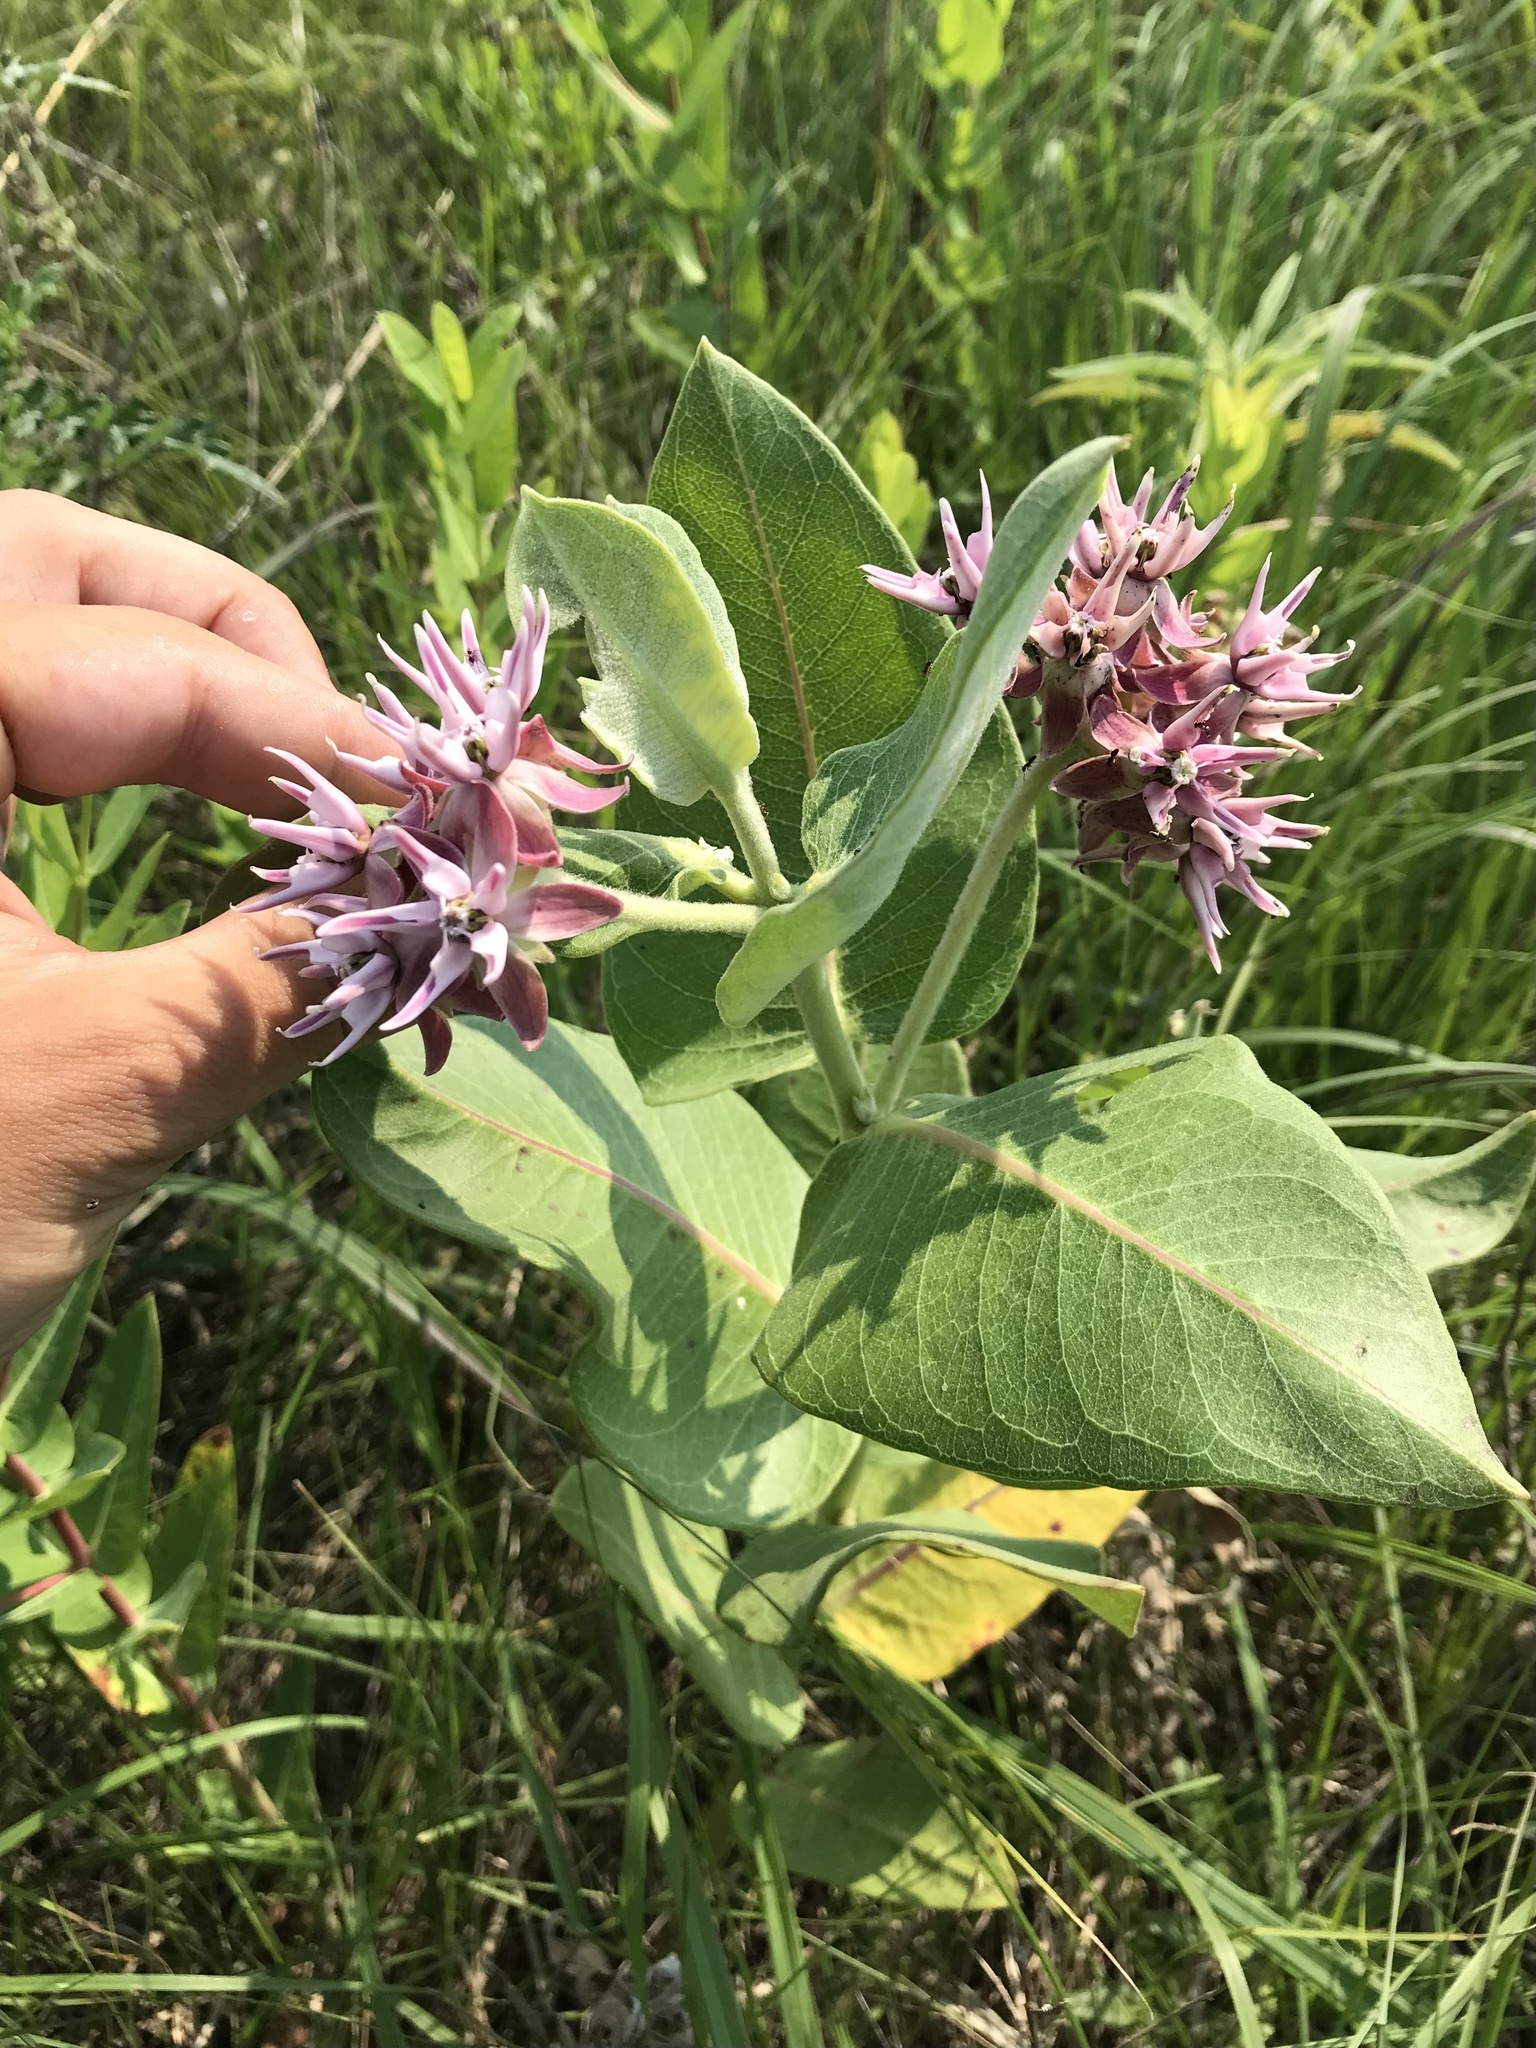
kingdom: Plantae
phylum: Tracheophyta
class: Magnoliopsida
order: Gentianales
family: Apocynaceae
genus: Asclepias
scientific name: Asclepias speciosa
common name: Showy milkweed
